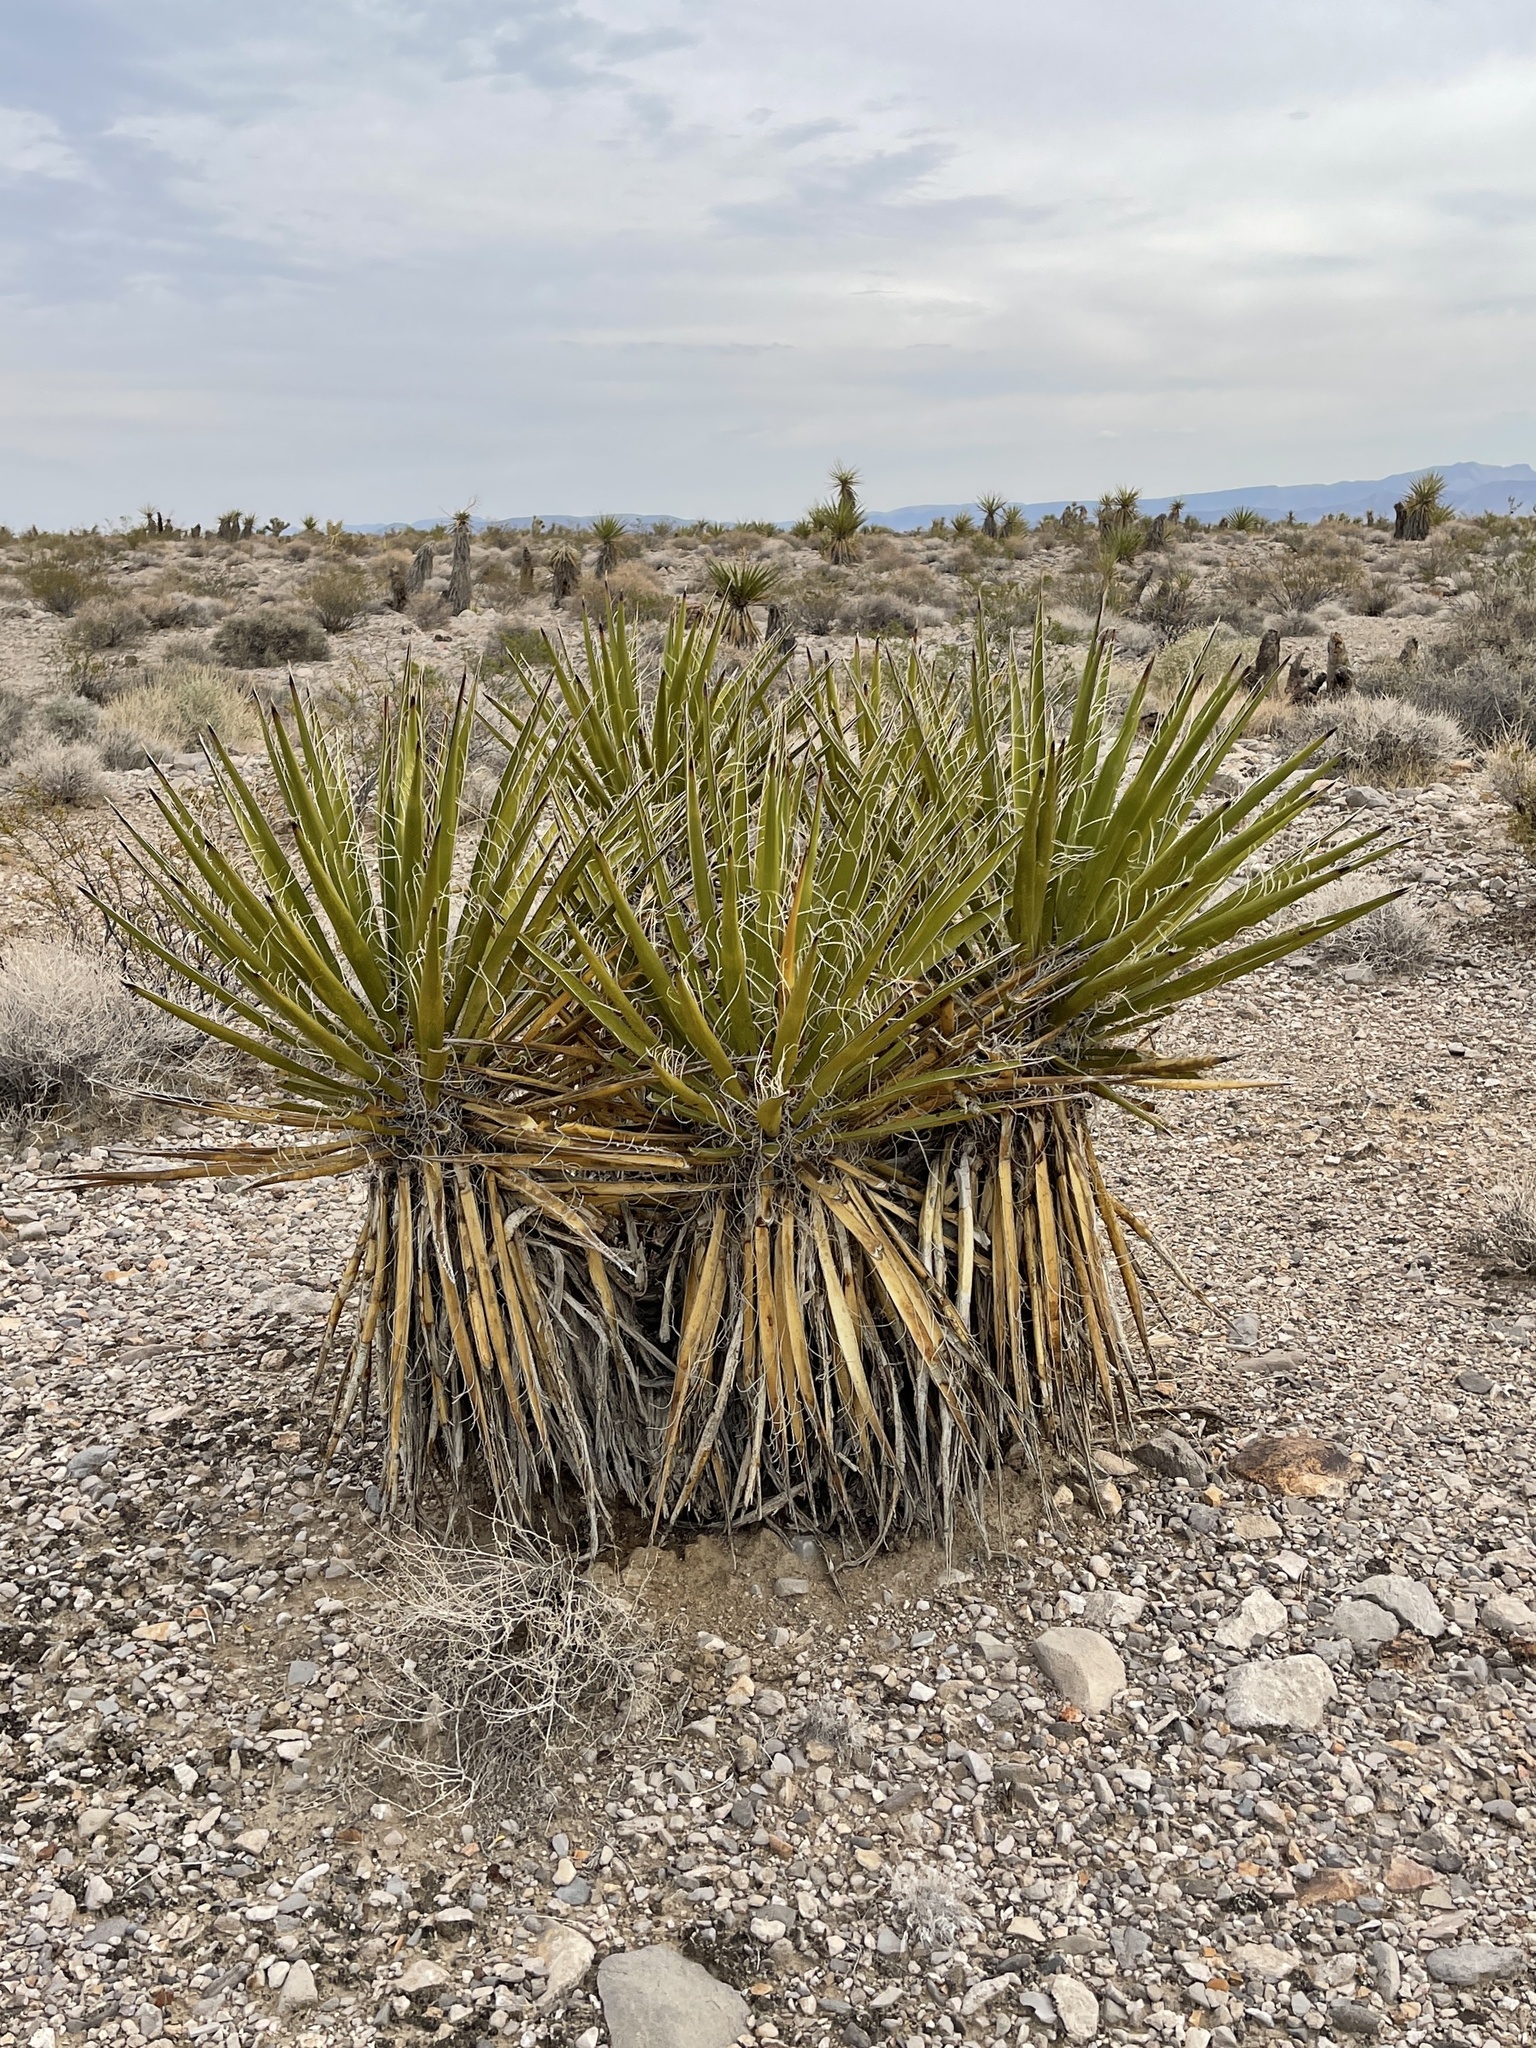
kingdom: Plantae
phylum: Tracheophyta
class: Liliopsida
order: Asparagales
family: Asparagaceae
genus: Yucca
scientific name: Yucca schidigera
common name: Mojave yucca
